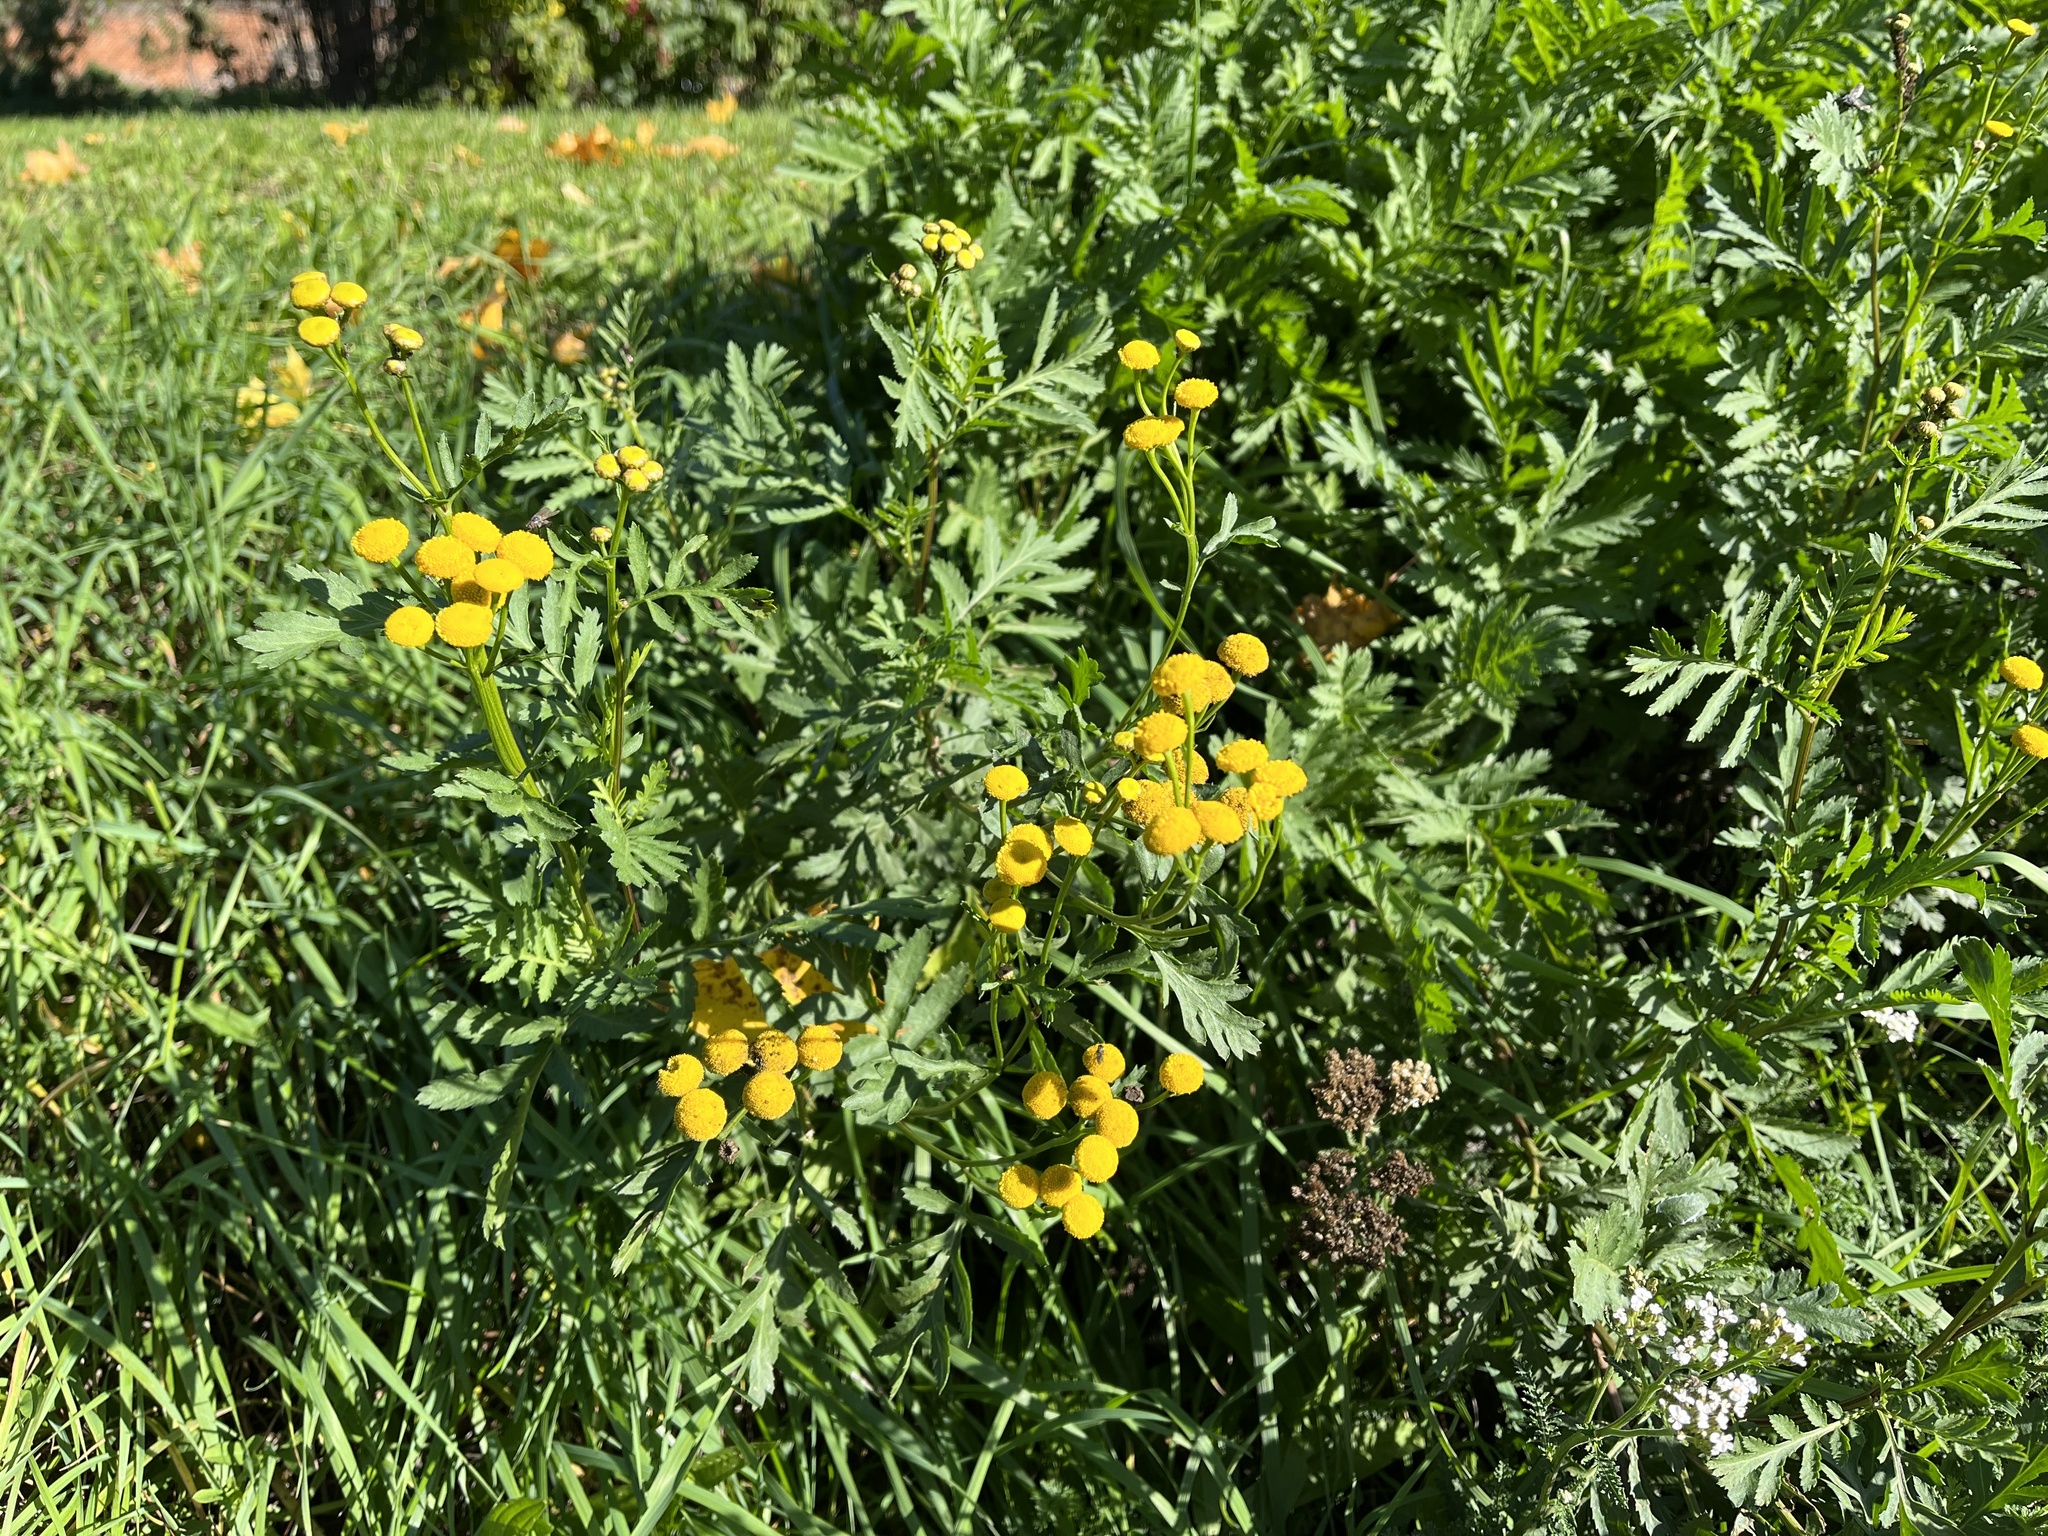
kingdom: Plantae
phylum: Tracheophyta
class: Magnoliopsida
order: Asterales
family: Asteraceae
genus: Tanacetum
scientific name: Tanacetum vulgare
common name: Common tansy
